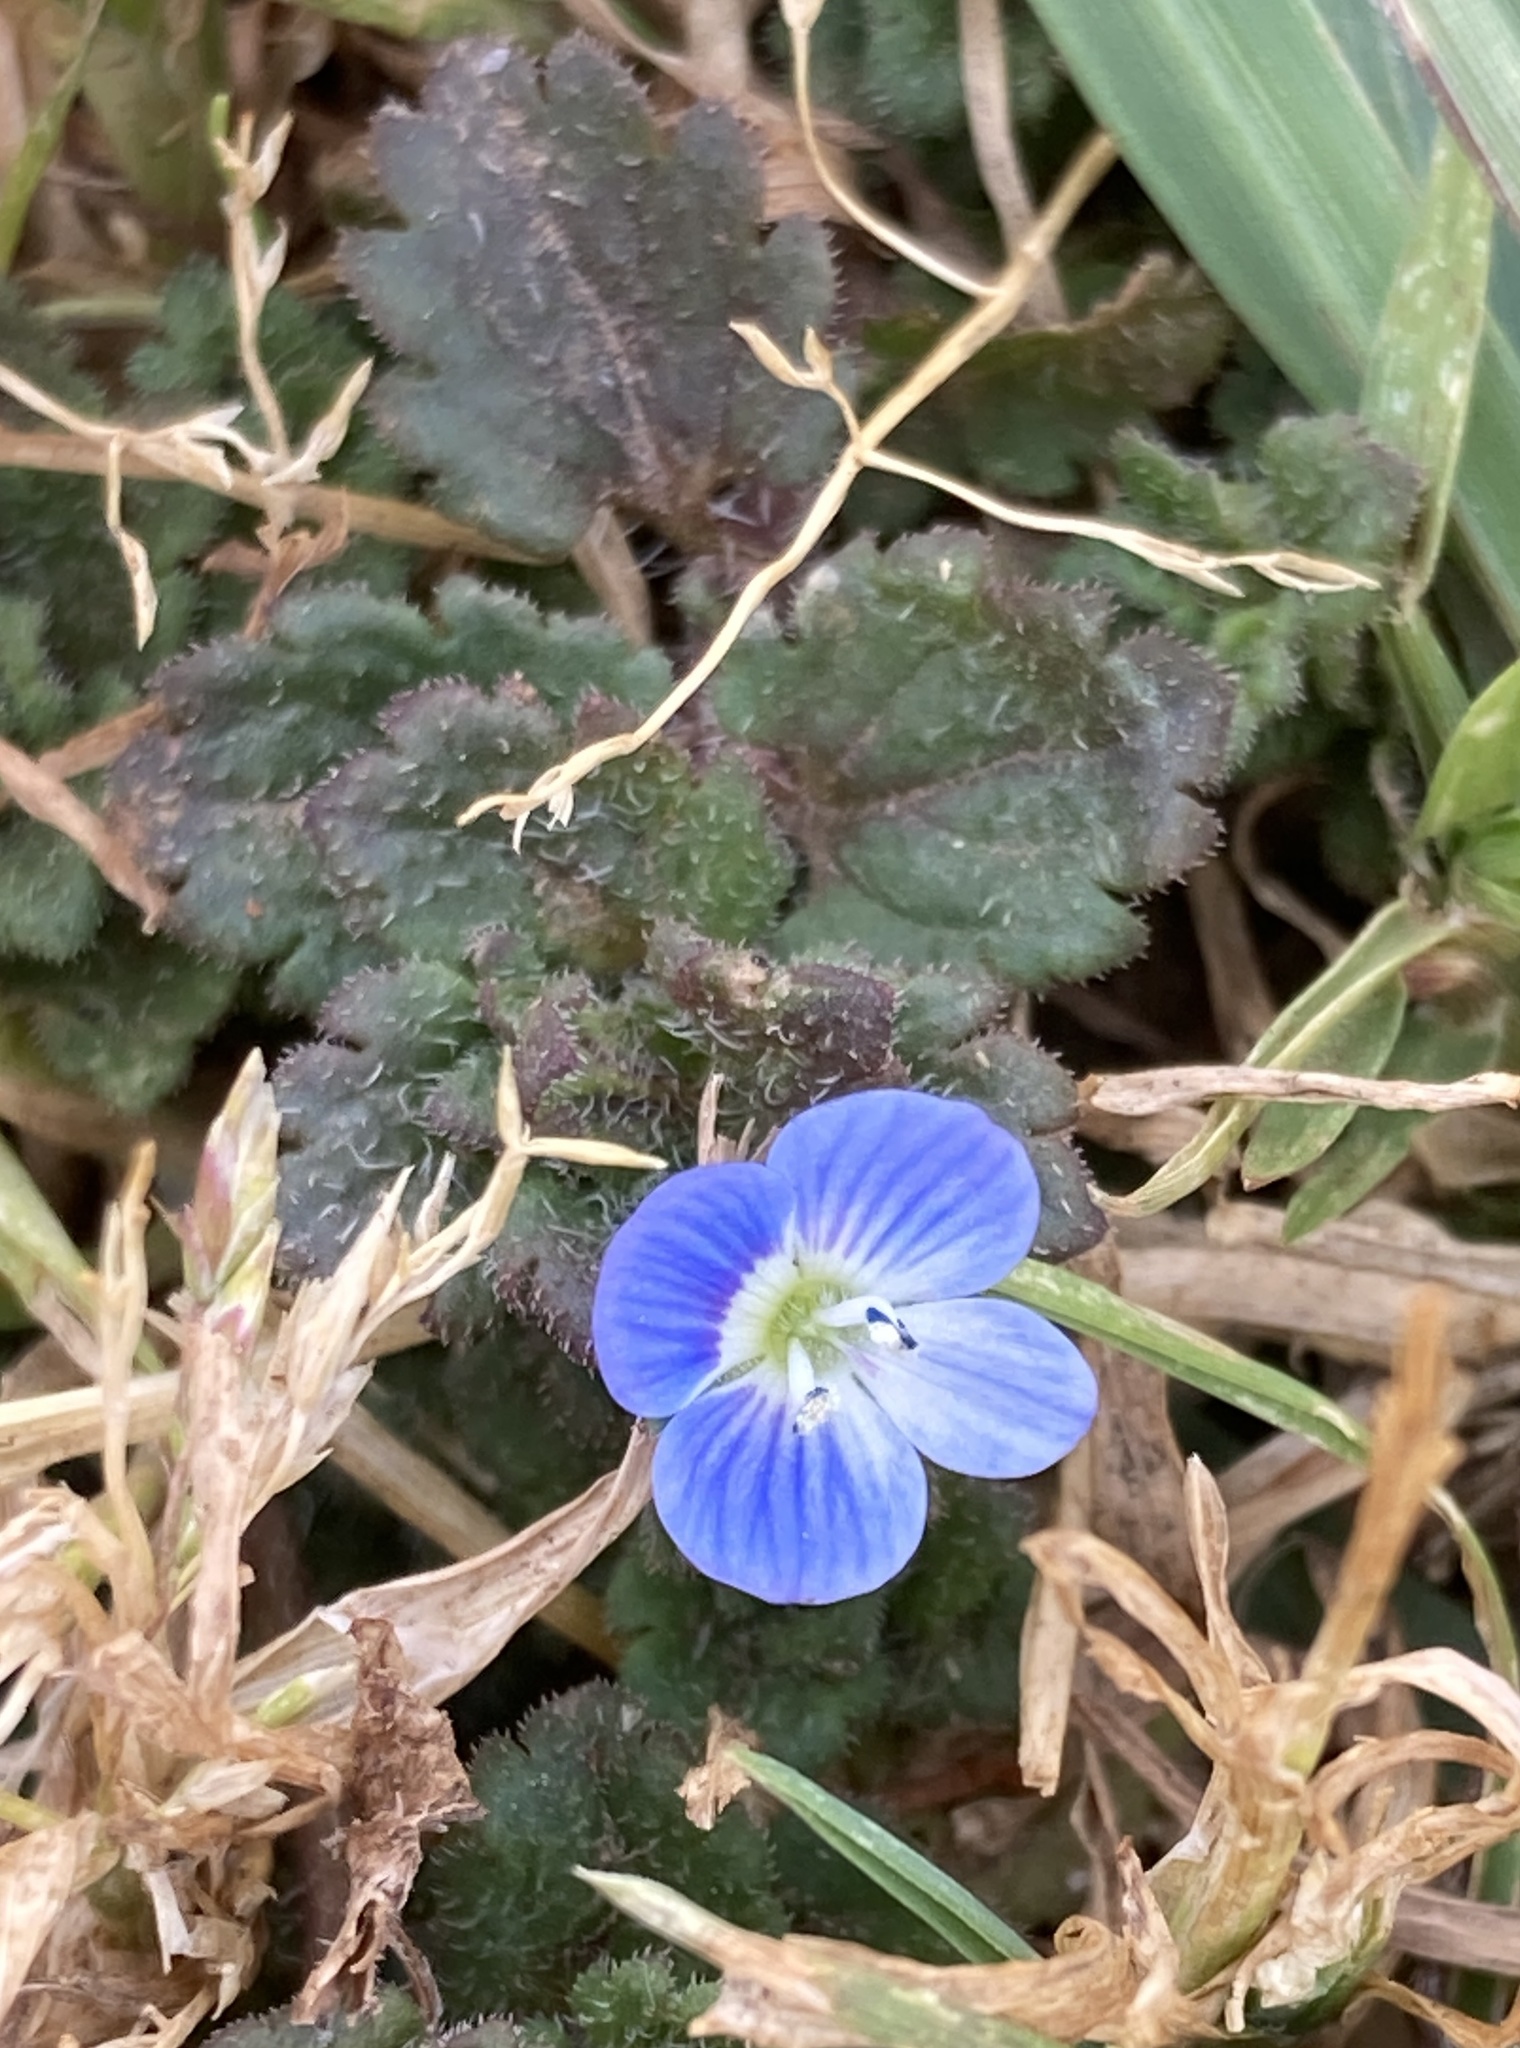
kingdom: Plantae
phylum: Tracheophyta
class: Magnoliopsida
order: Lamiales
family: Plantaginaceae
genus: Veronica
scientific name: Veronica persica
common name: Common field-speedwell
